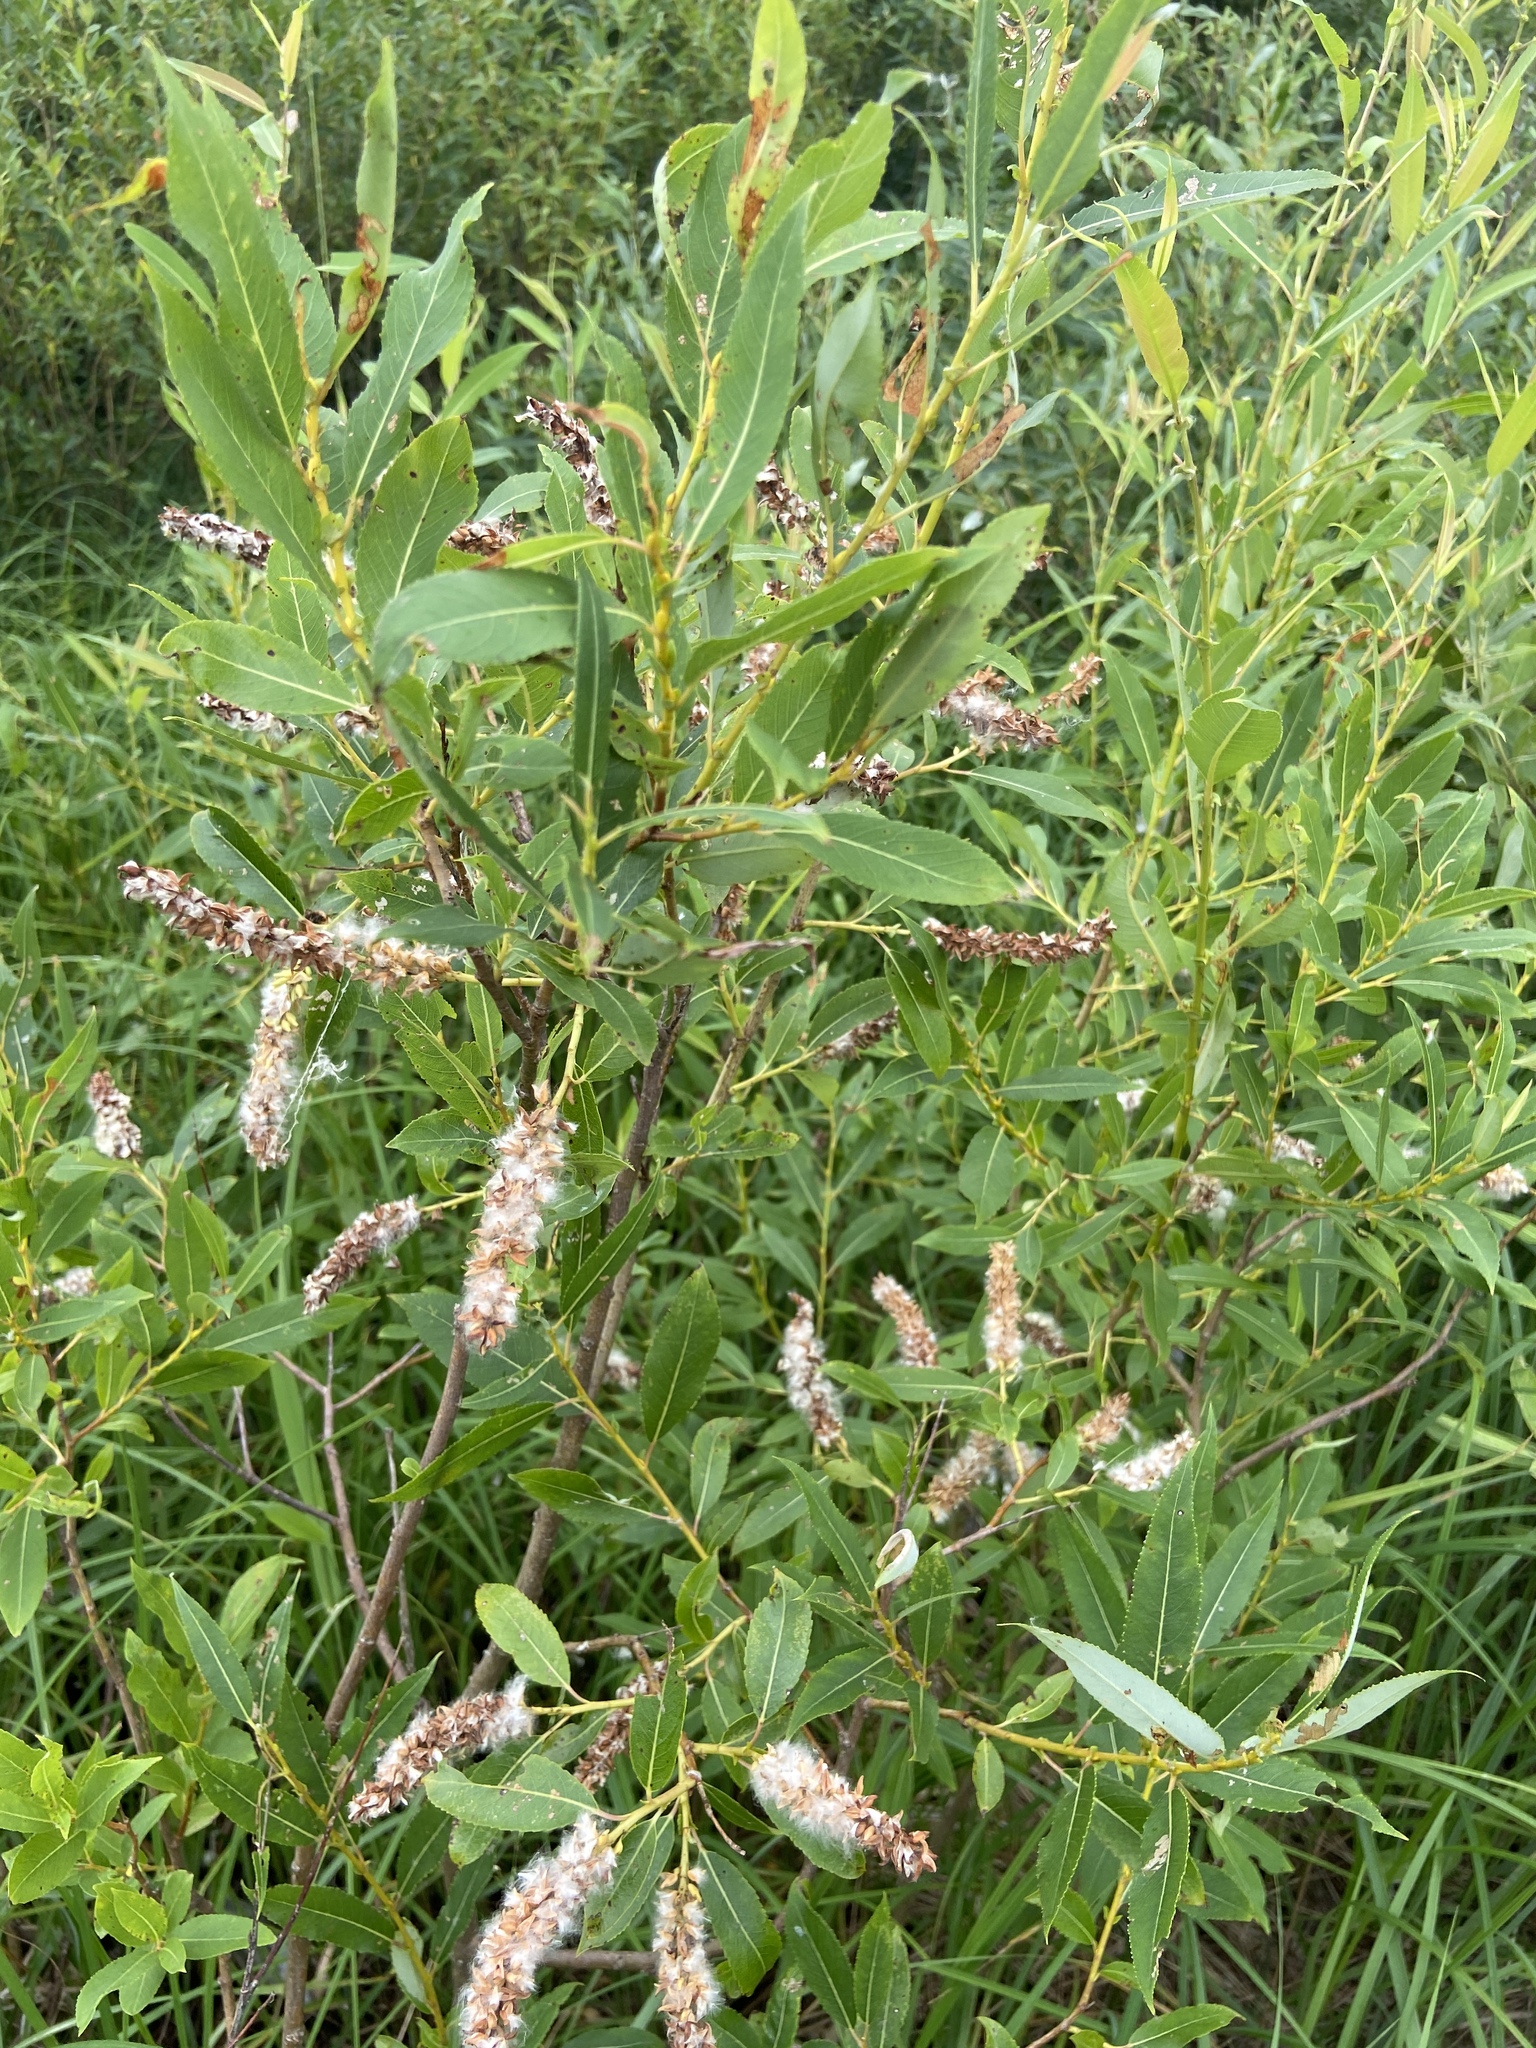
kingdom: Plantae
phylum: Tracheophyta
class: Magnoliopsida
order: Malpighiales
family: Salicaceae
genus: Salix
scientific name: Salix triandra
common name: Almond willow
